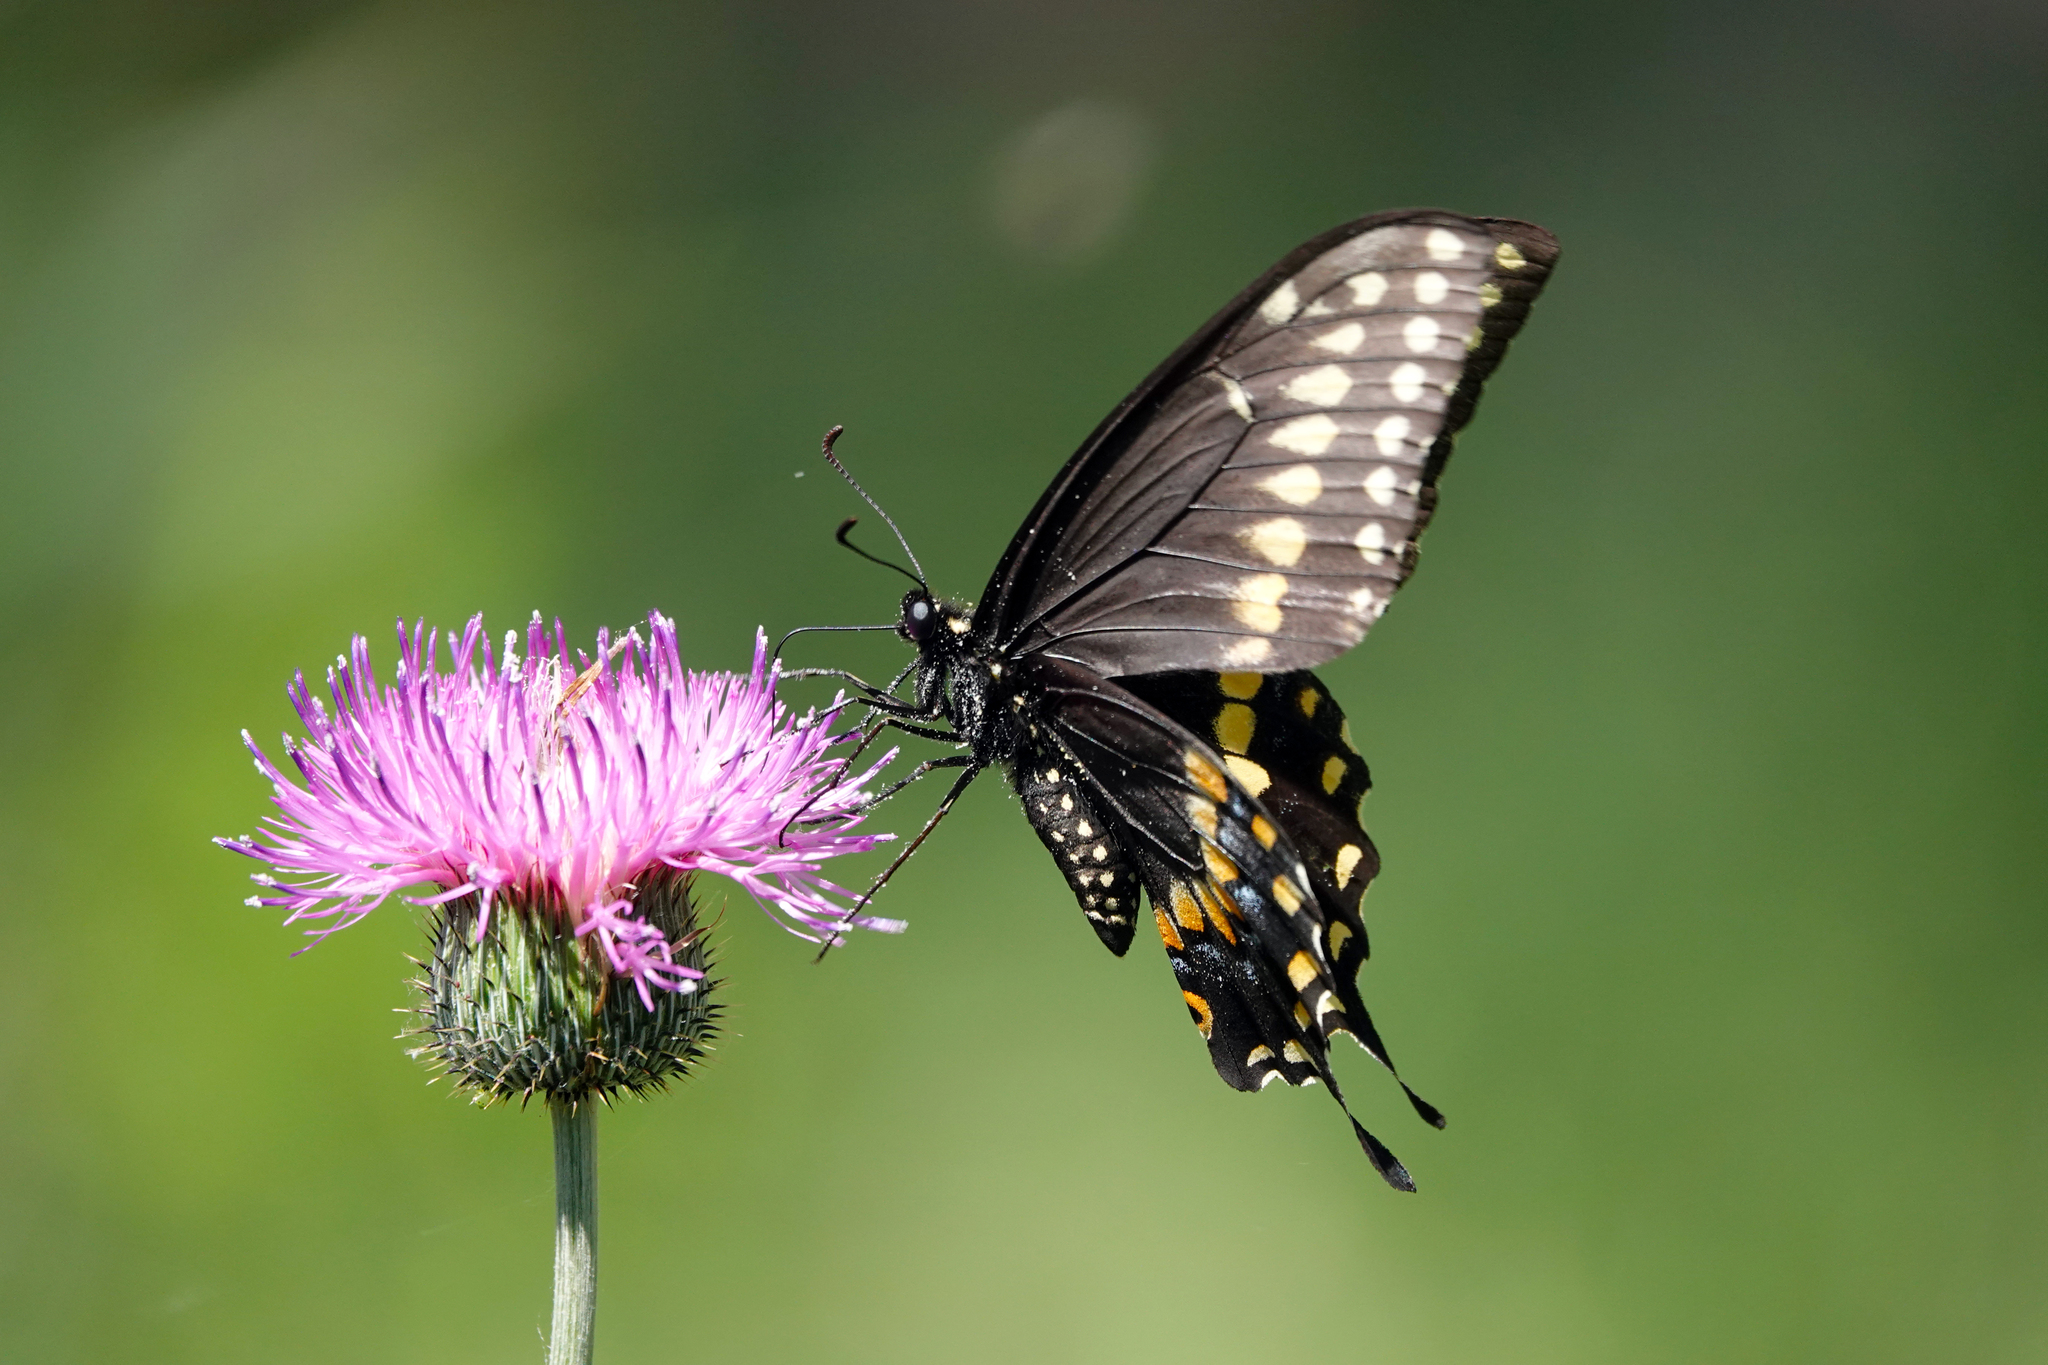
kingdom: Animalia
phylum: Arthropoda
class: Insecta
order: Lepidoptera
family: Papilionidae
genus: Papilio
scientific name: Papilio polyxenes
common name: Black swallowtail
